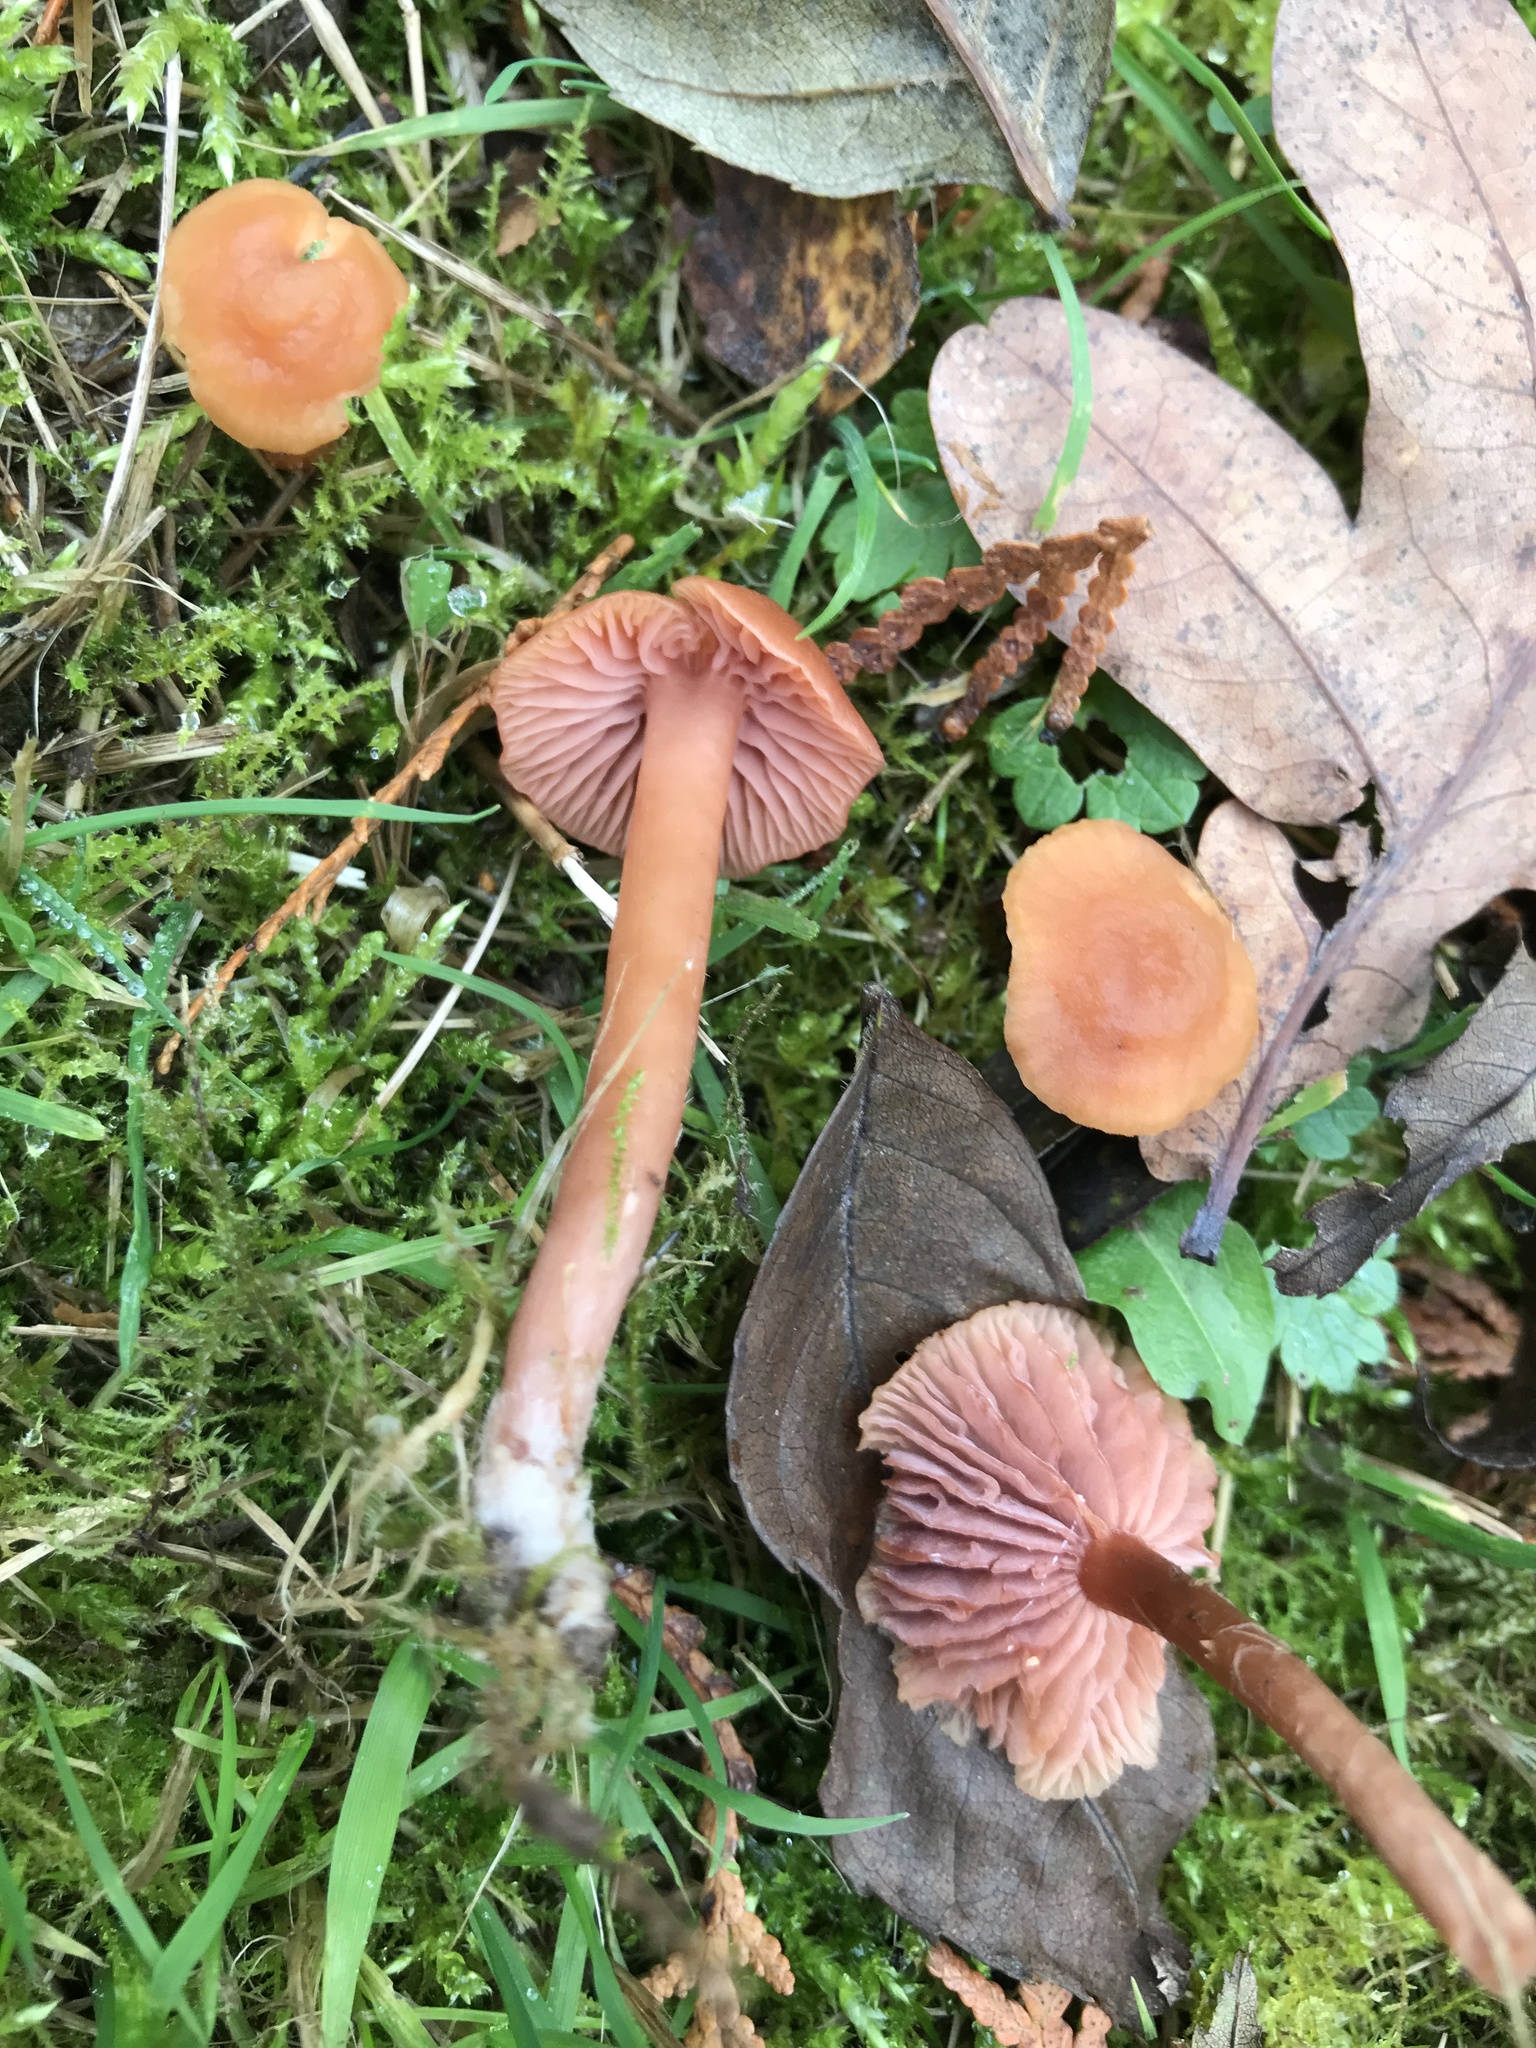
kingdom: Fungi
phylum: Basidiomycota
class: Agaricomycetes
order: Agaricales
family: Hydnangiaceae
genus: Laccaria
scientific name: Laccaria laccata
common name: Deceiver
